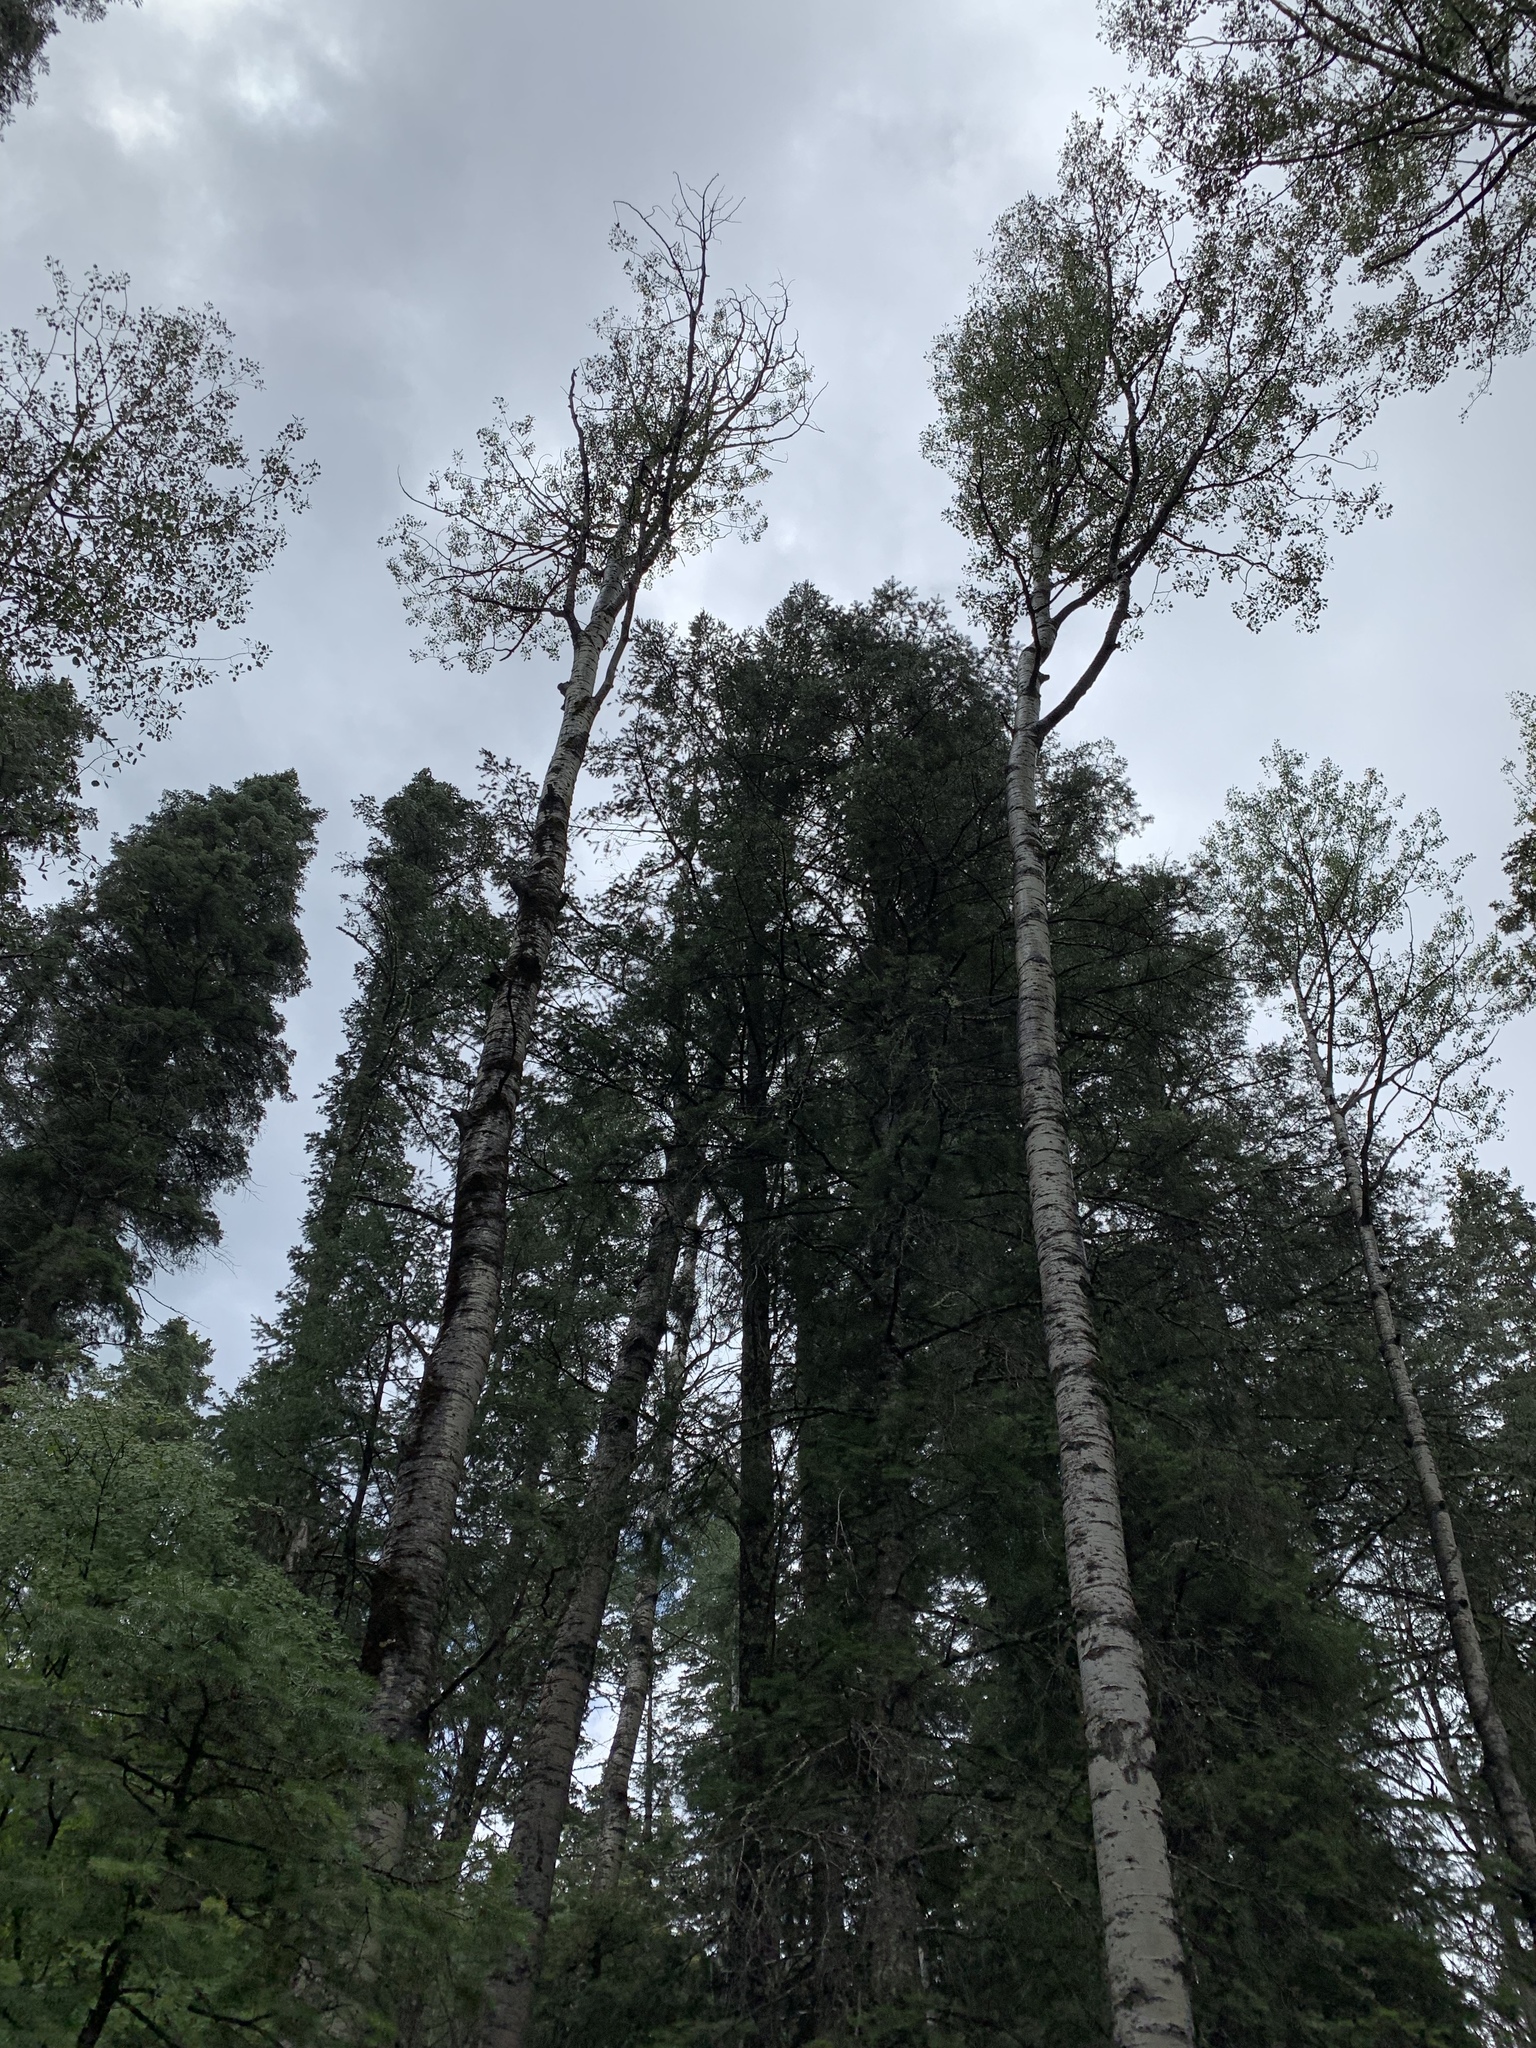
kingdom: Plantae
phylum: Tracheophyta
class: Magnoliopsida
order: Malpighiales
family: Salicaceae
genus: Populus
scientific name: Populus tremuloides
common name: Quaking aspen
